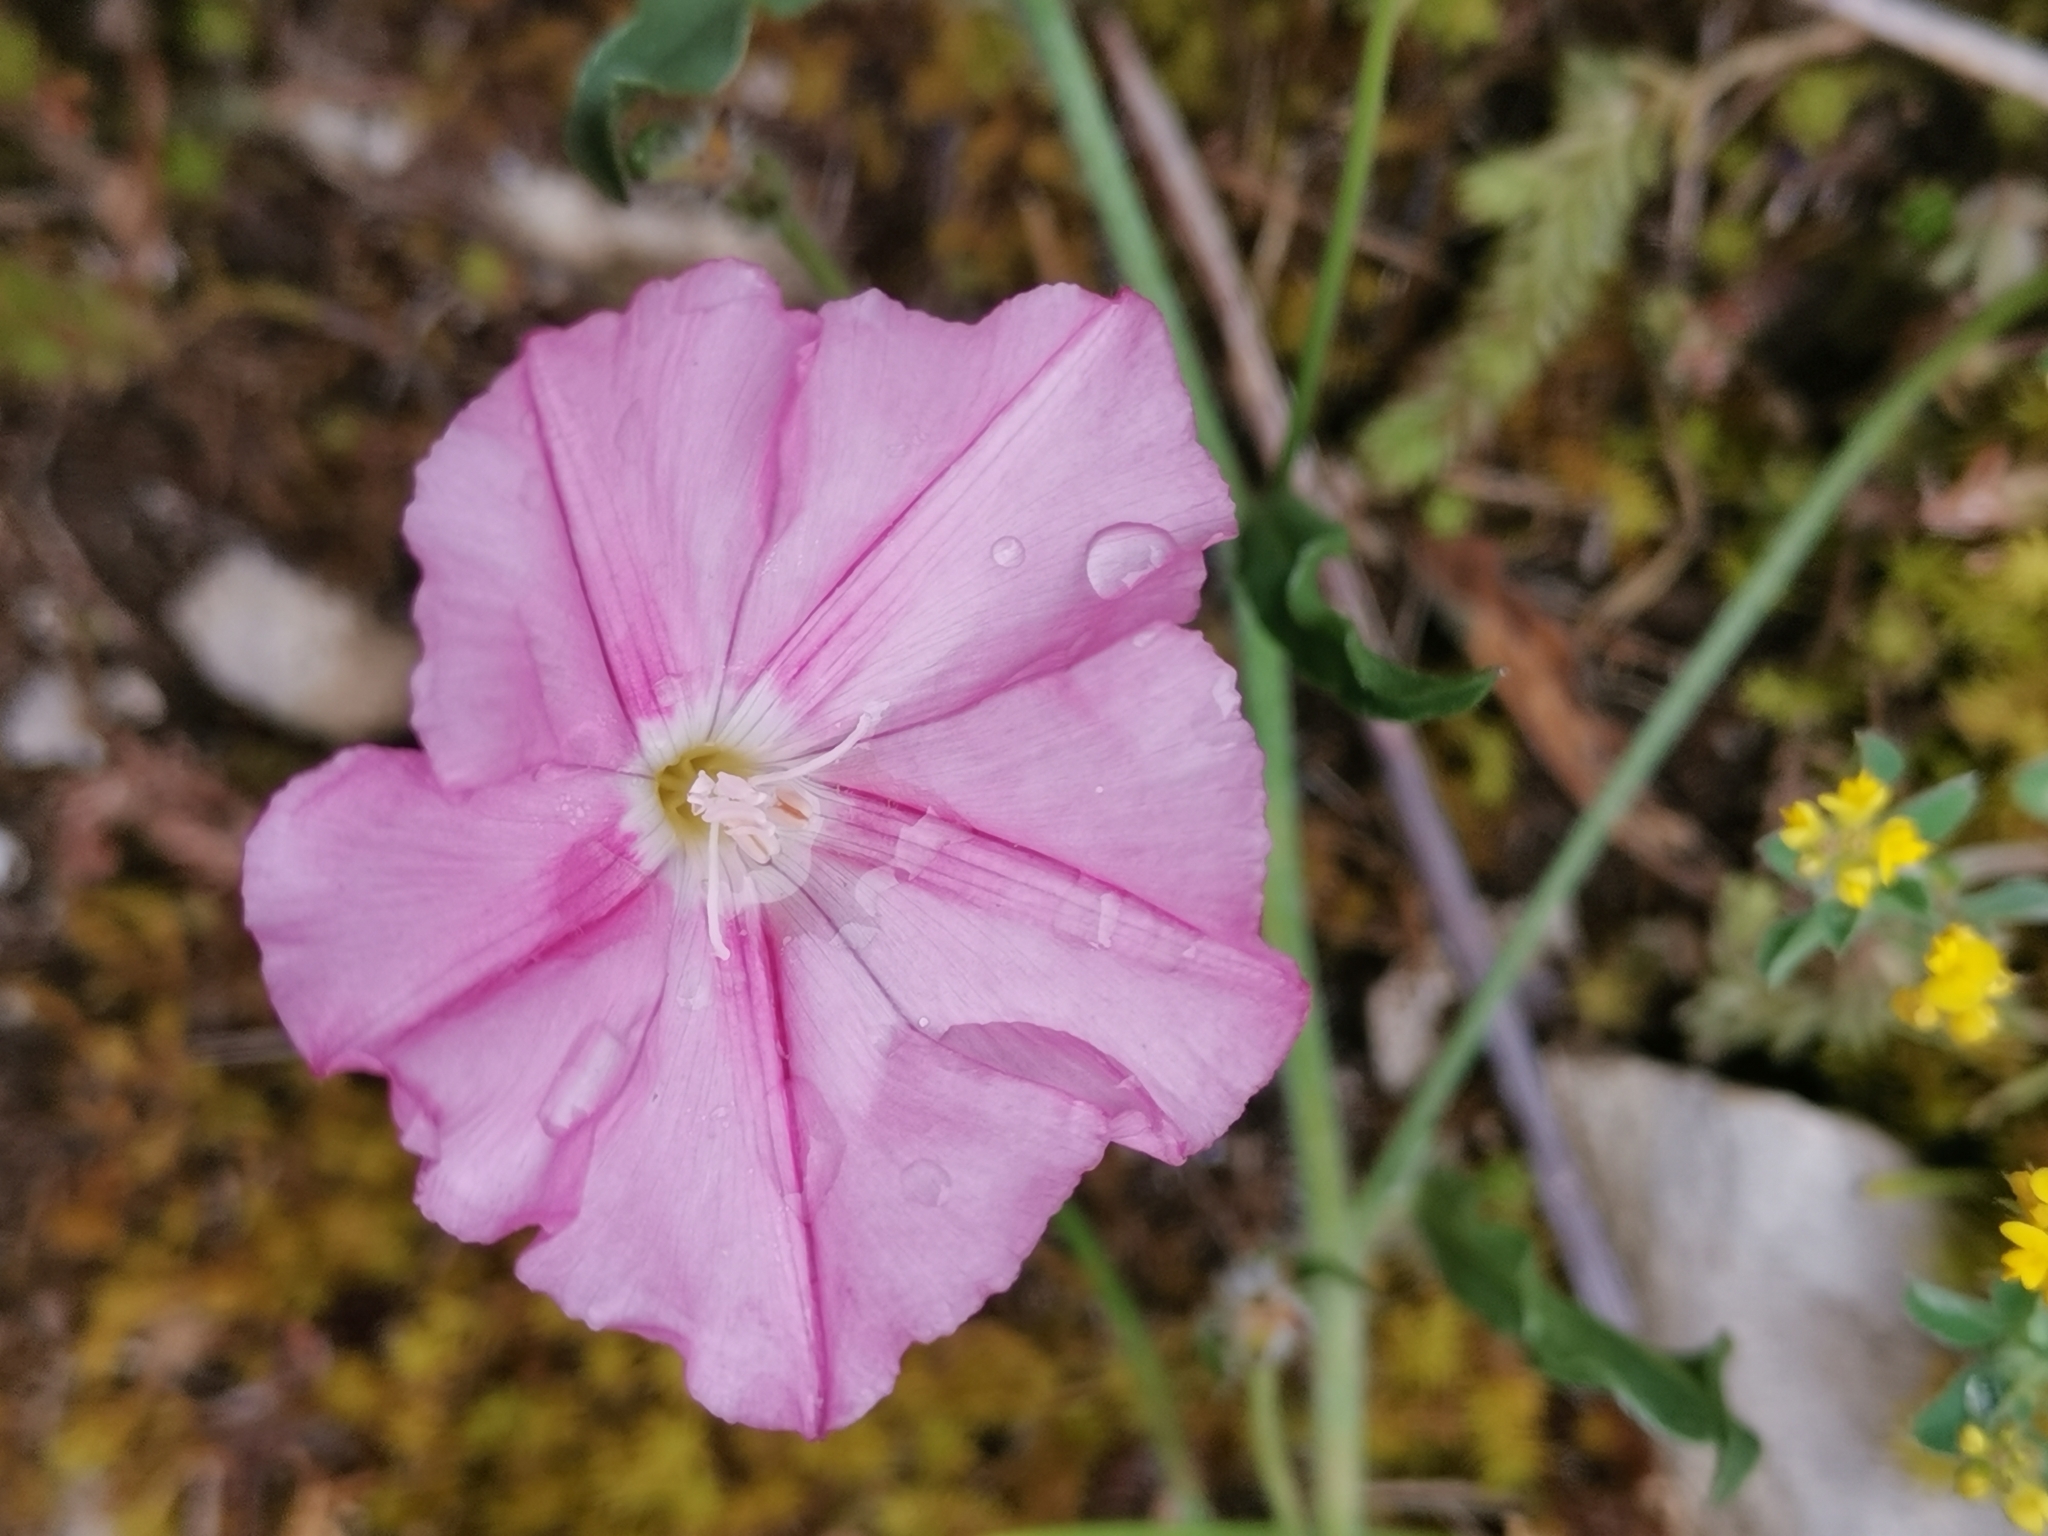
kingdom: Plantae
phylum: Tracheophyta
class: Magnoliopsida
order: Solanales
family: Convolvulaceae
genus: Convolvulus
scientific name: Convolvulus cantabrica
